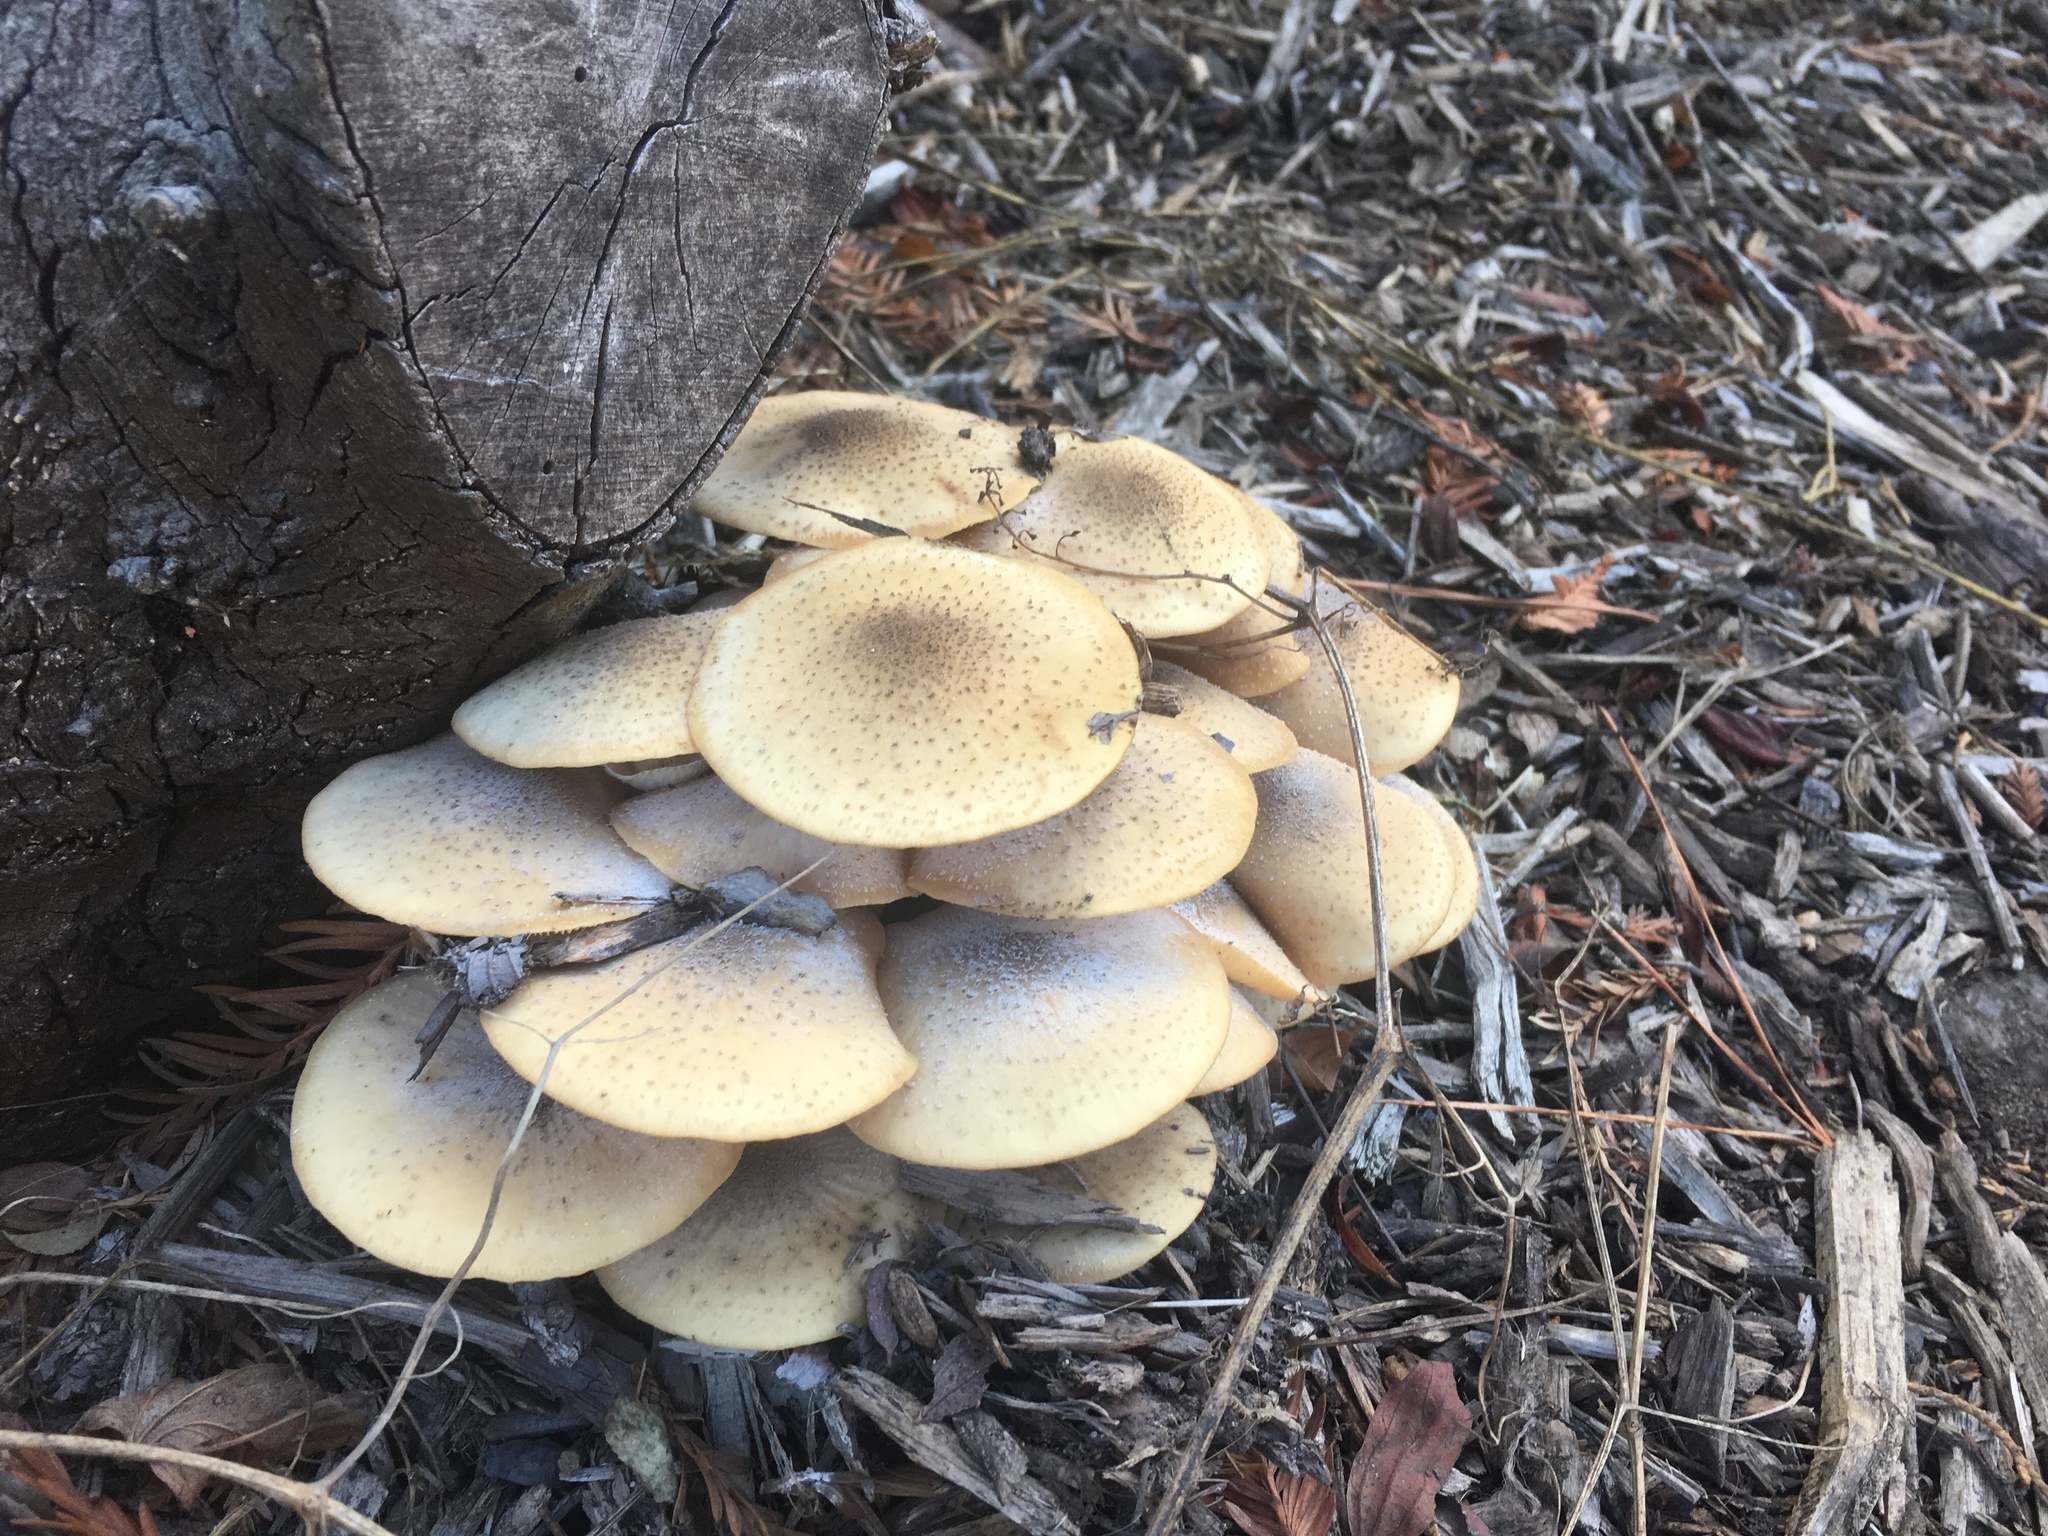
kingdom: Fungi
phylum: Basidiomycota
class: Agaricomycetes
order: Agaricales
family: Physalacriaceae
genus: Armillaria
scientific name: Armillaria mellea
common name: Honey fungus
